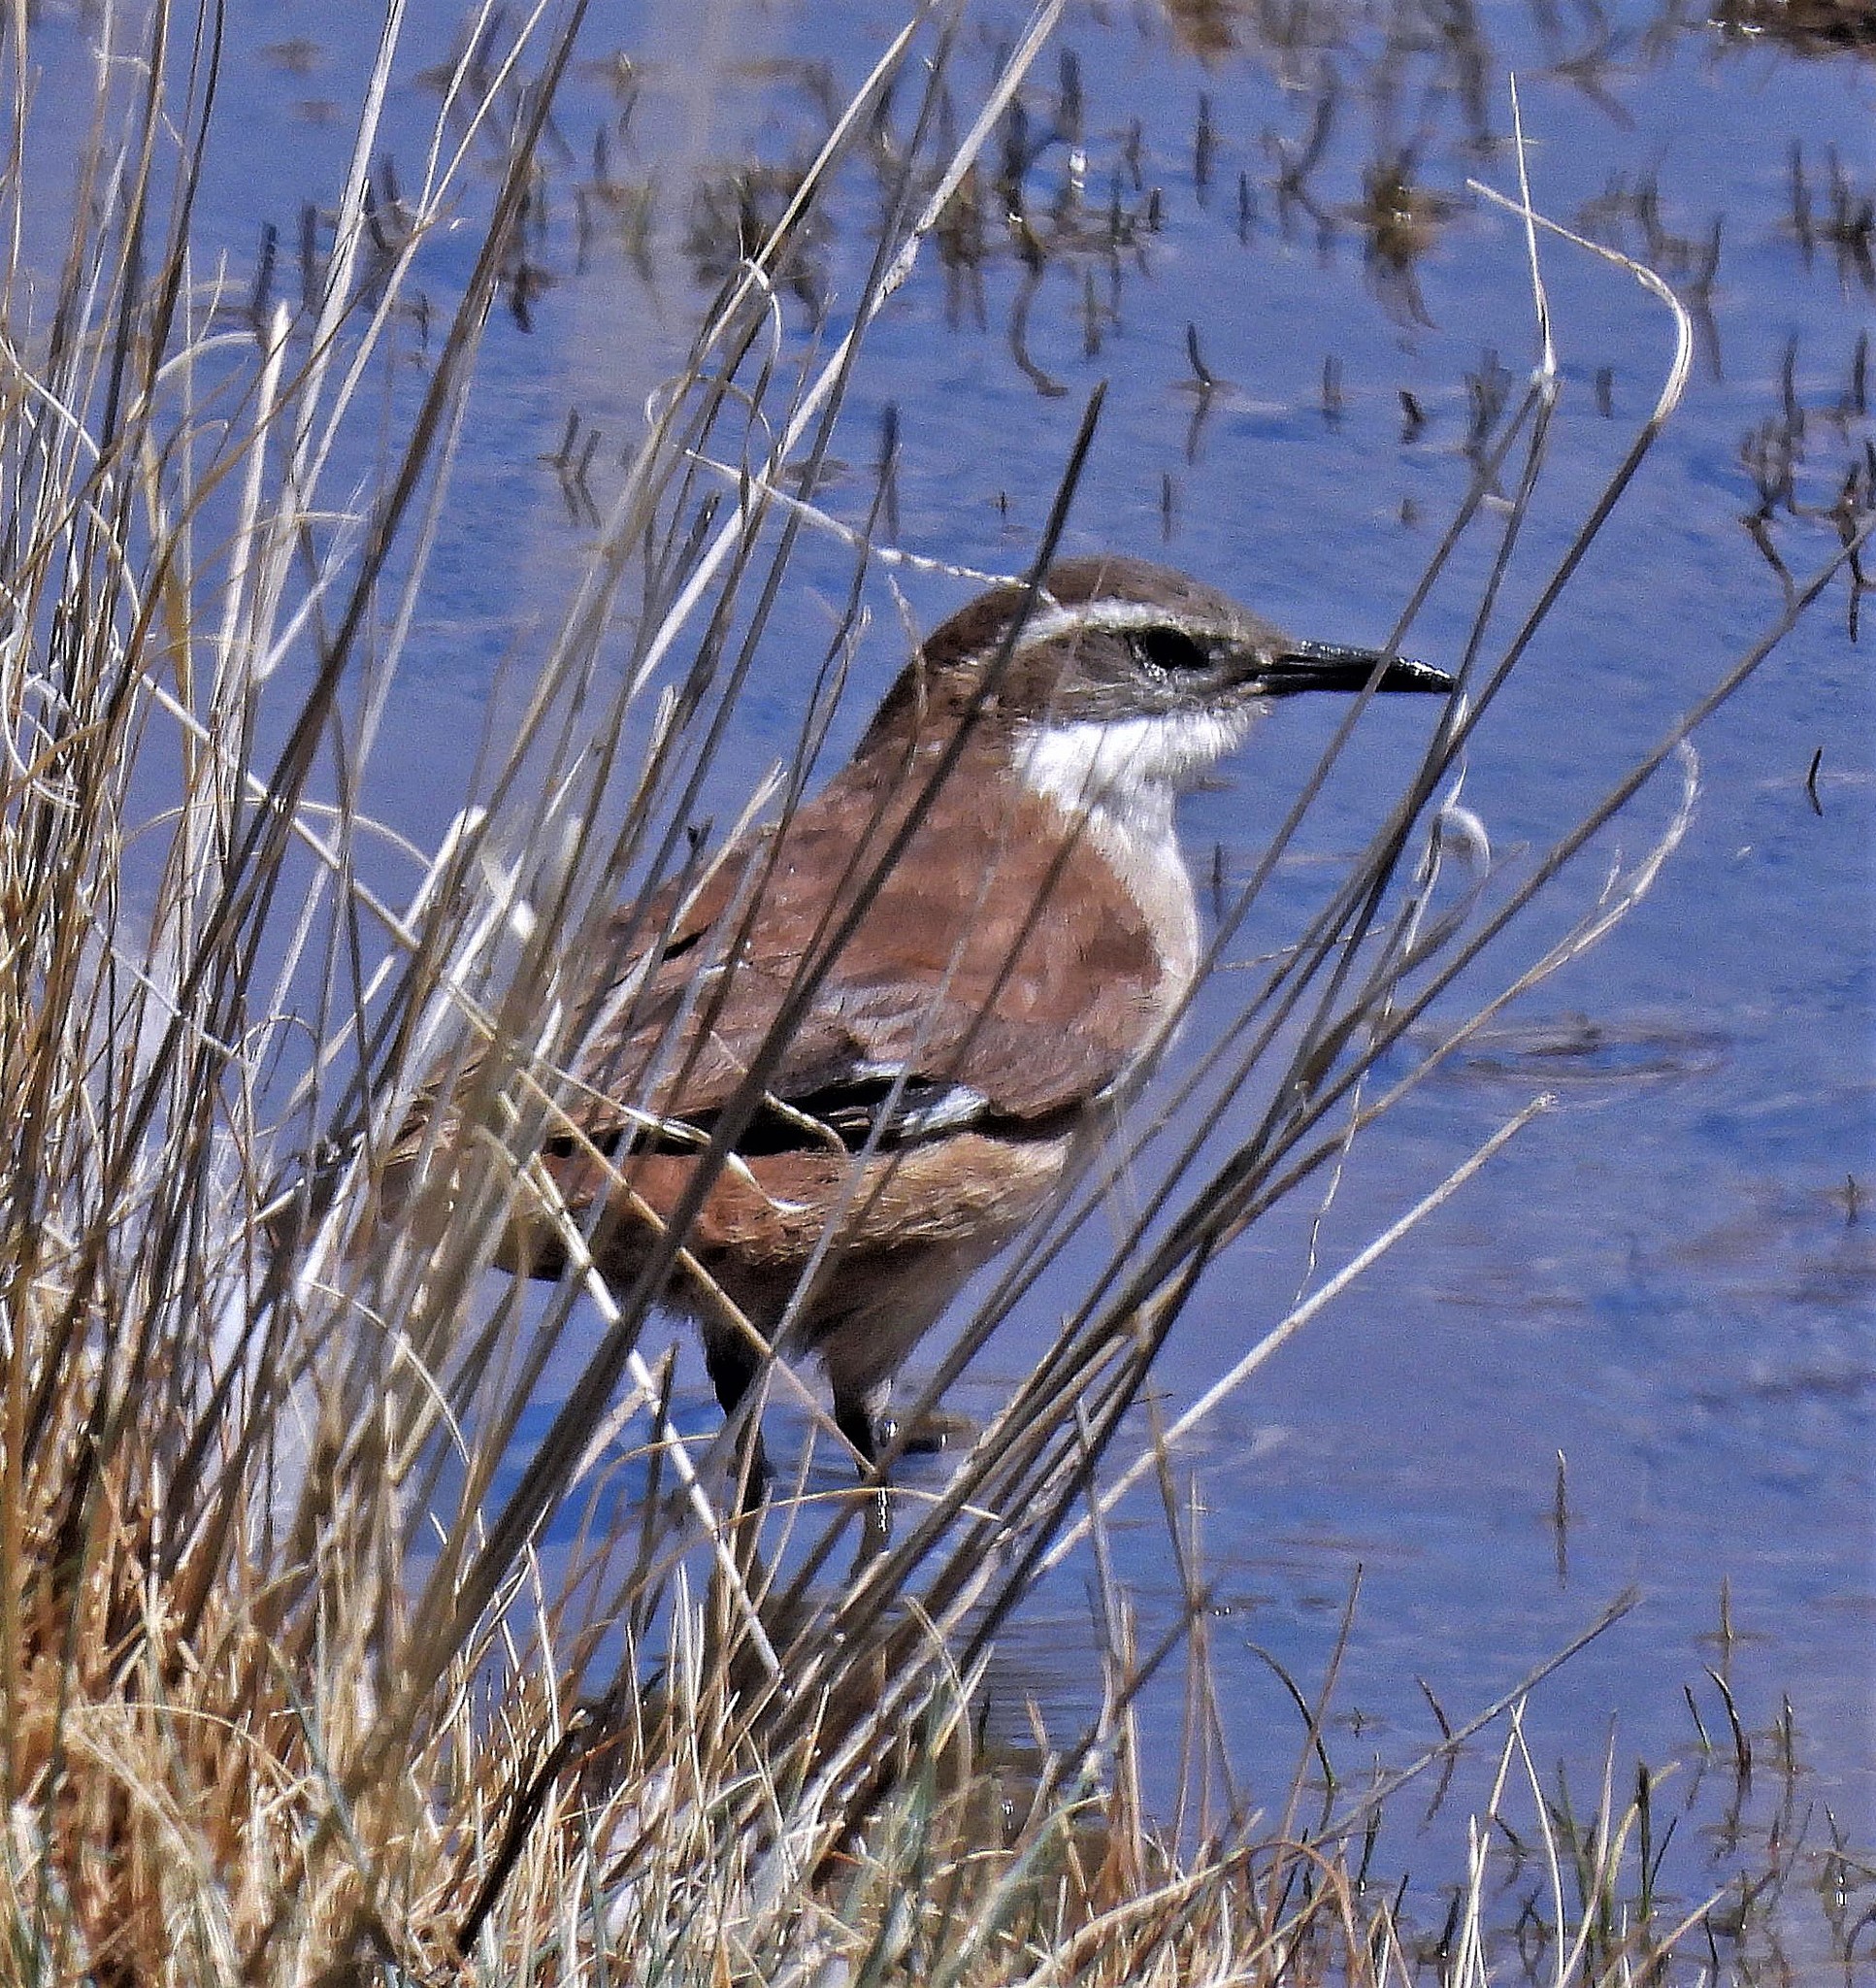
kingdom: Animalia
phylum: Chordata
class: Aves
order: Passeriformes
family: Furnariidae
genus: Cinclodes
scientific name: Cinclodes atacamensis
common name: White-winged cinclodes
